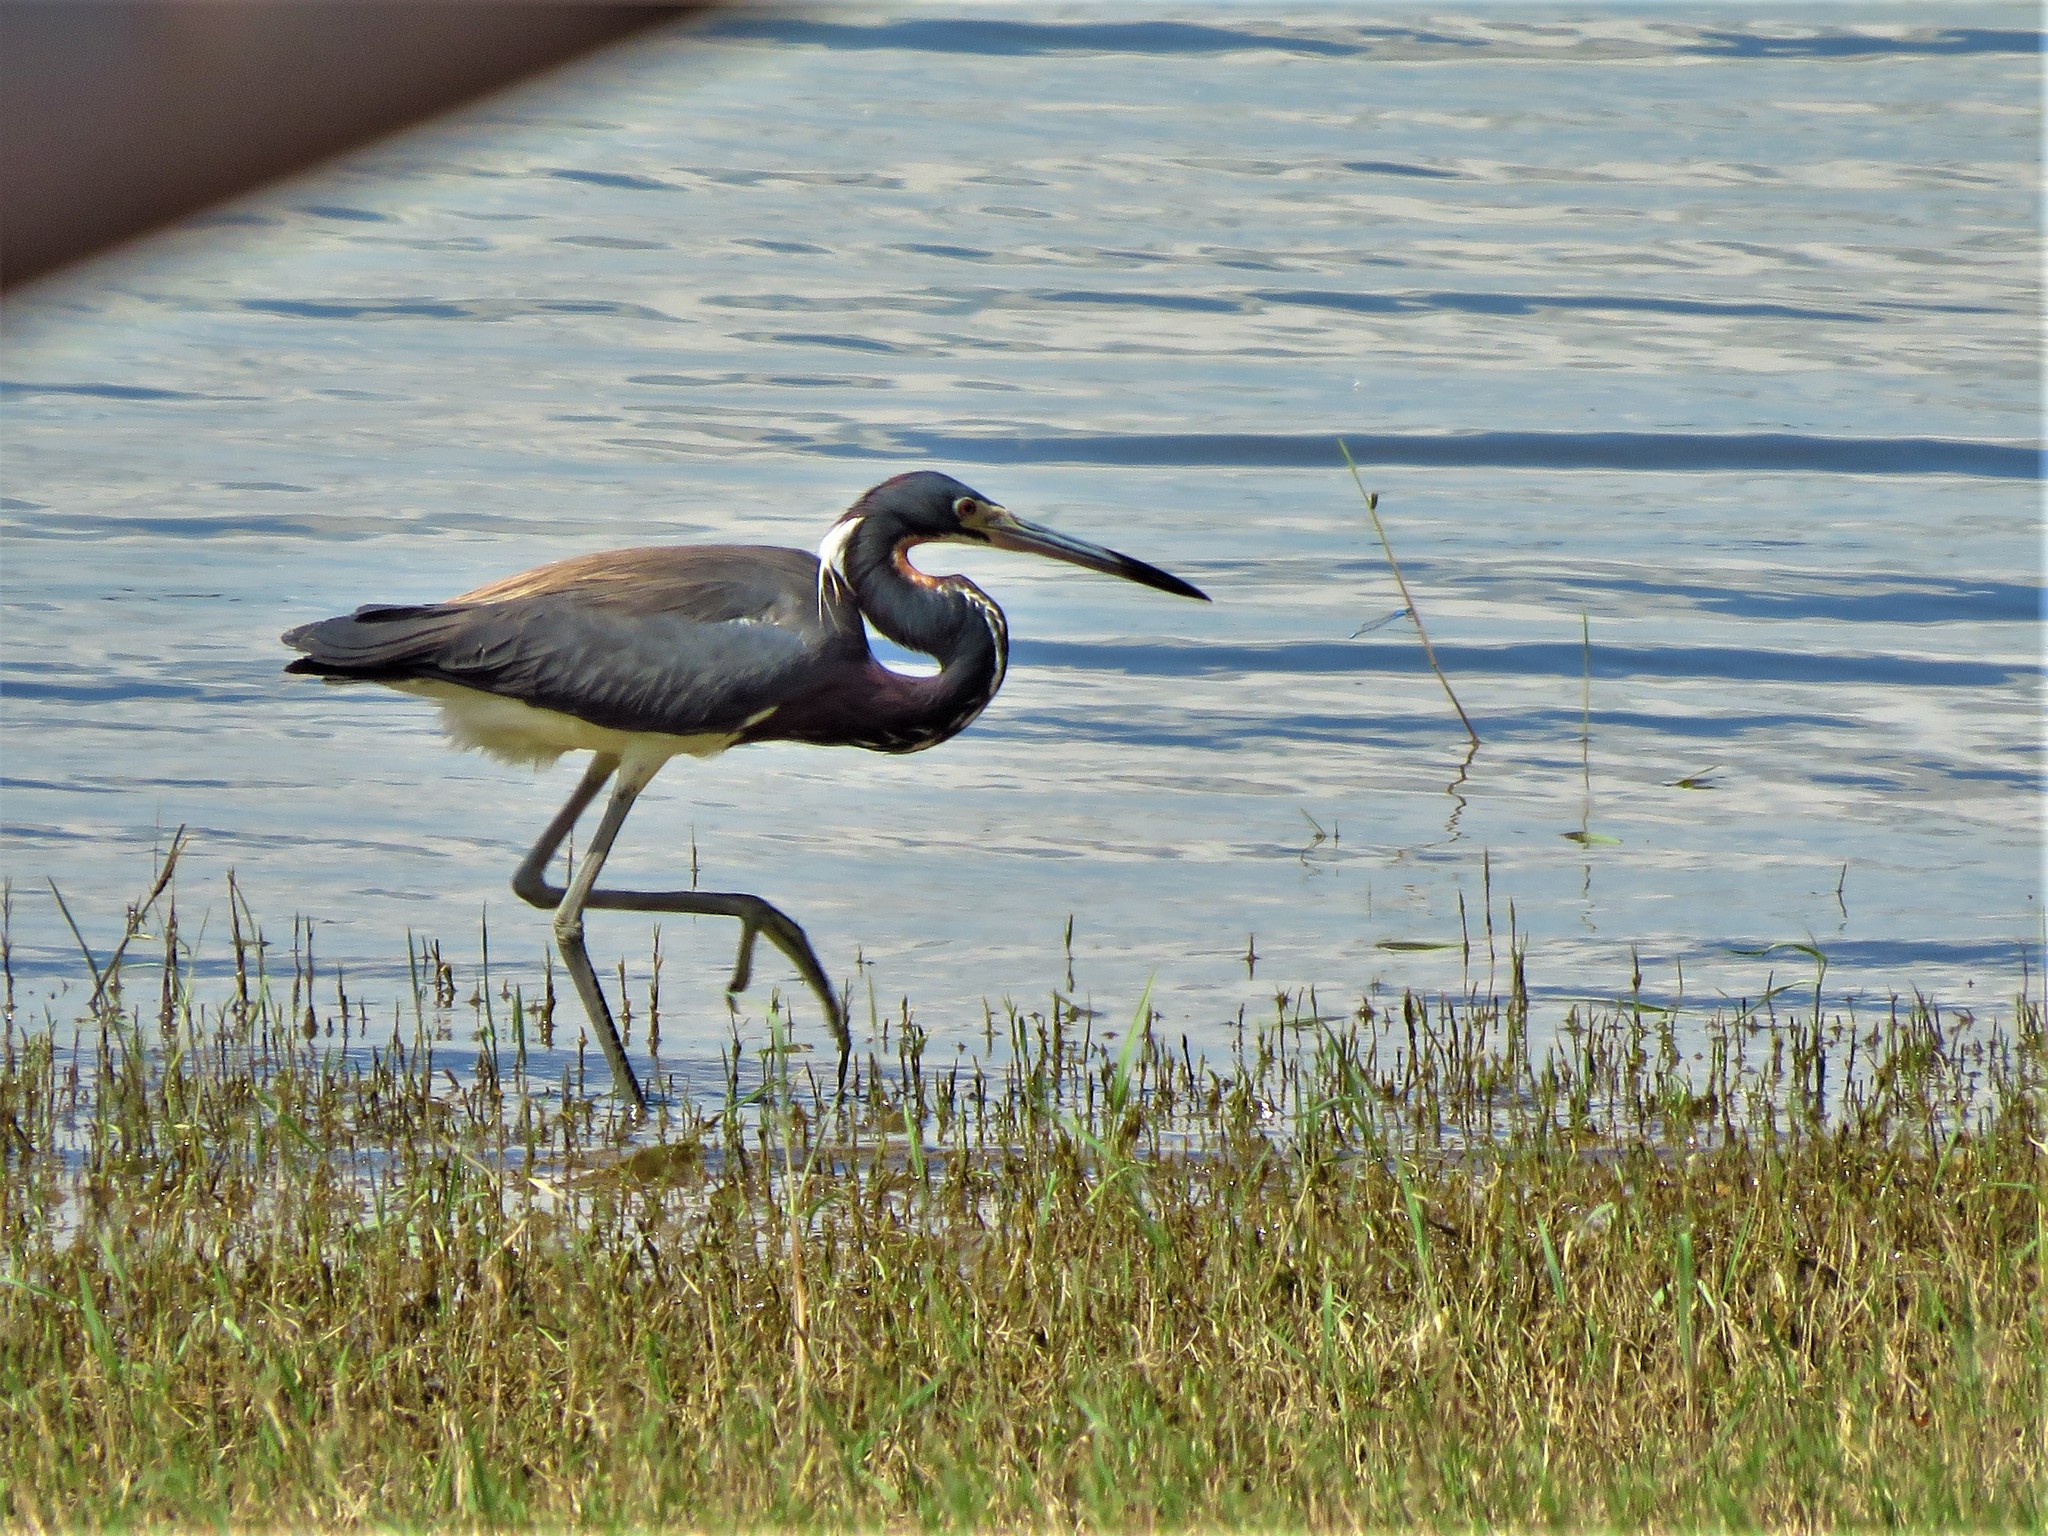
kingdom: Animalia
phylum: Chordata
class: Aves
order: Pelecaniformes
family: Ardeidae
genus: Egretta
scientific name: Egretta tricolor
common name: Tricolored heron
